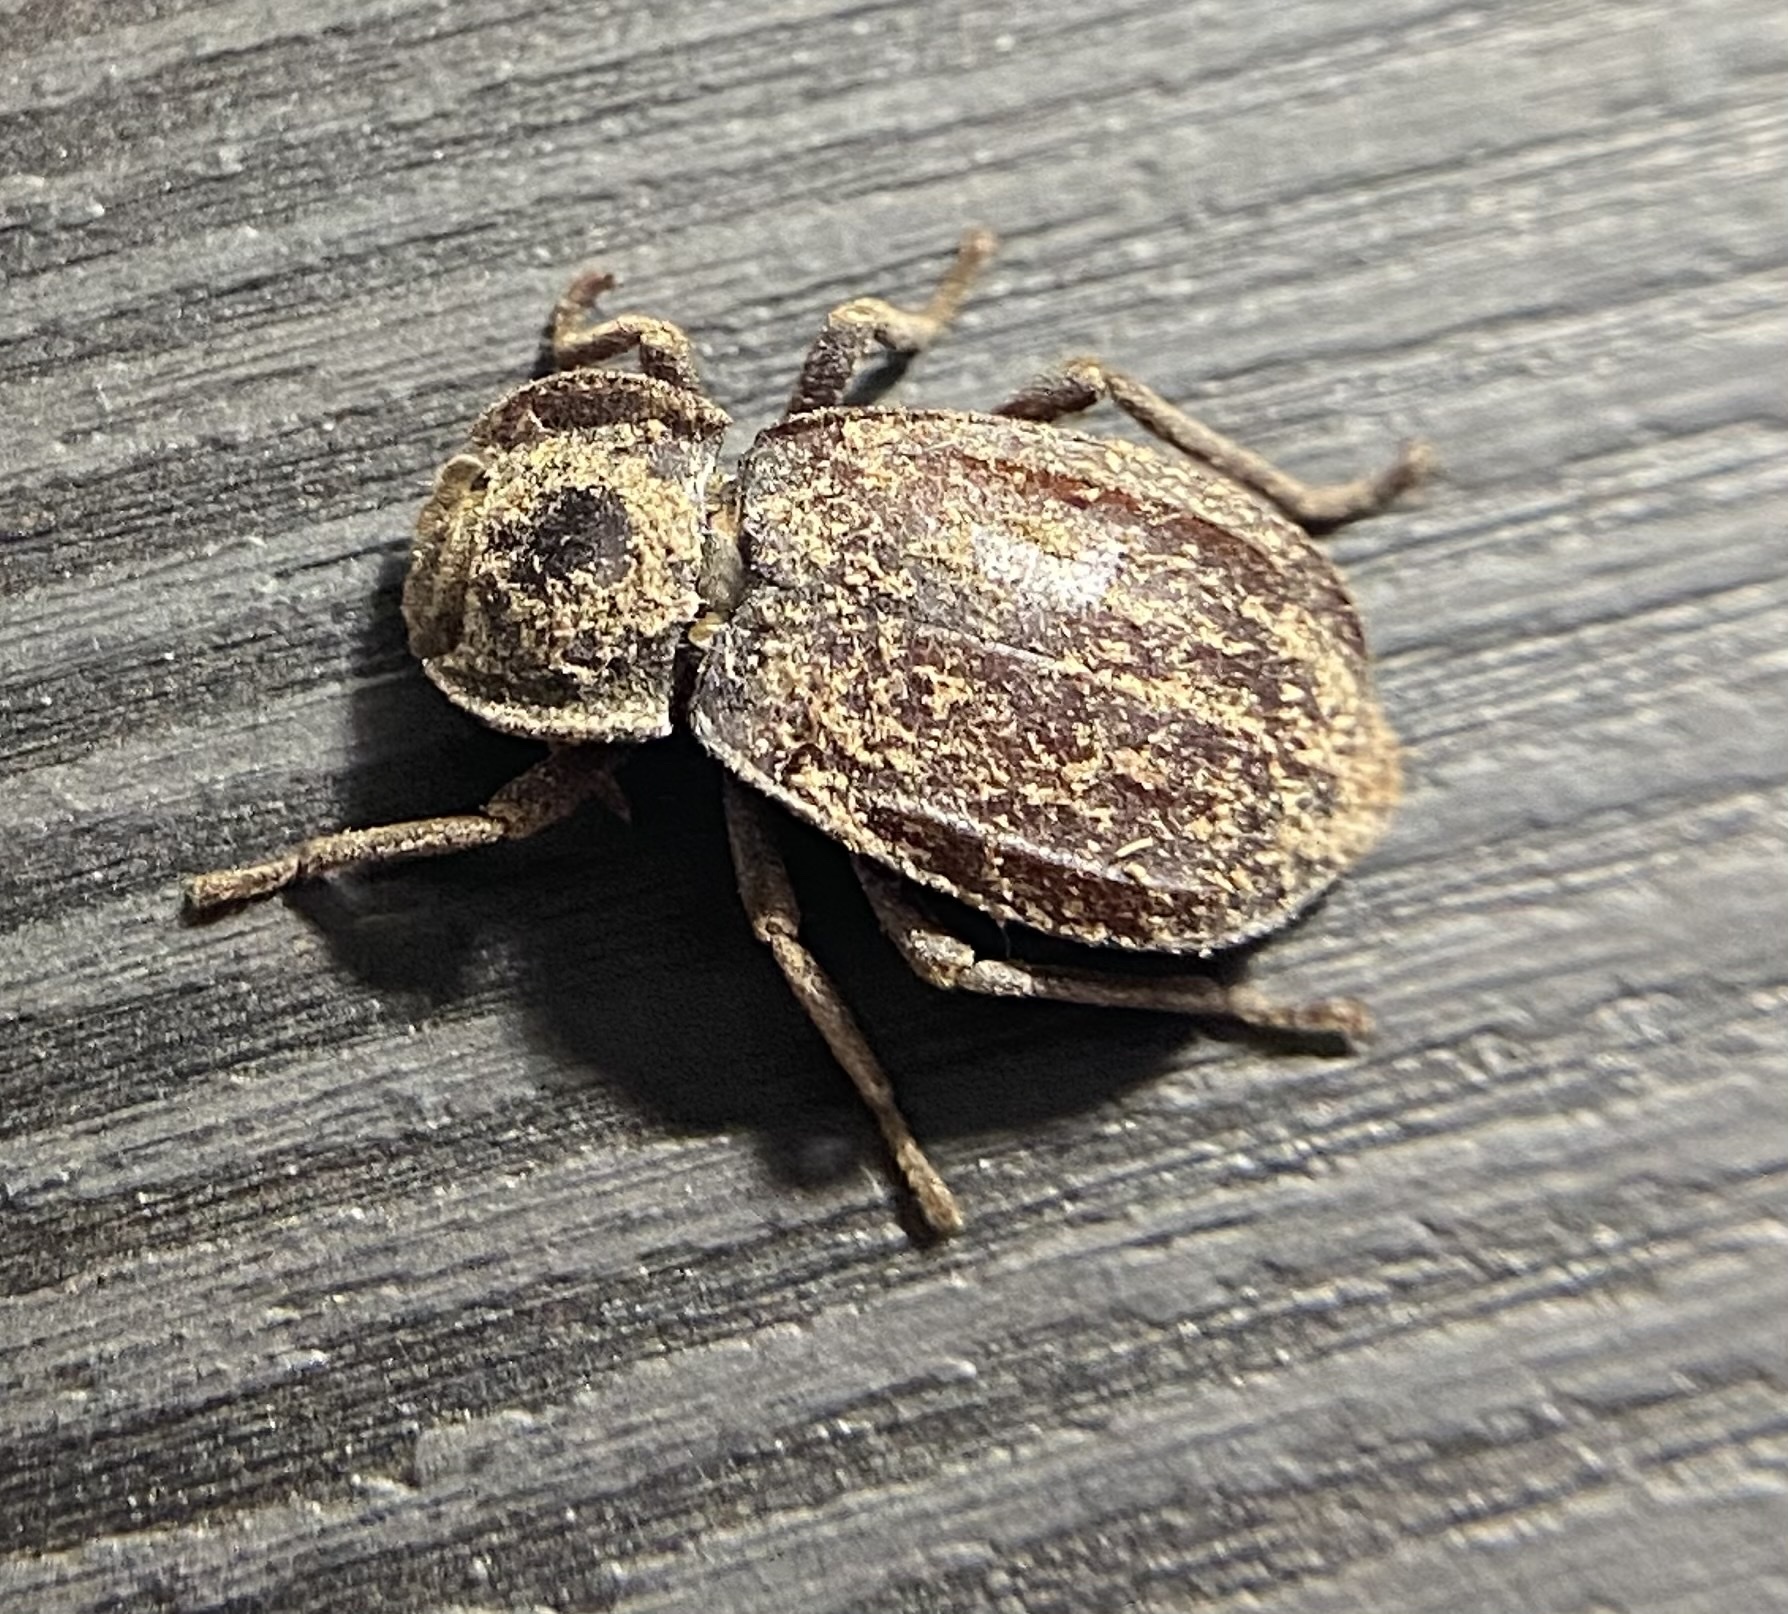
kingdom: Animalia
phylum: Arthropoda
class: Insecta
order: Coleoptera
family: Tenebrionidae
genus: Stenomorpha
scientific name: Stenomorpha parallela
